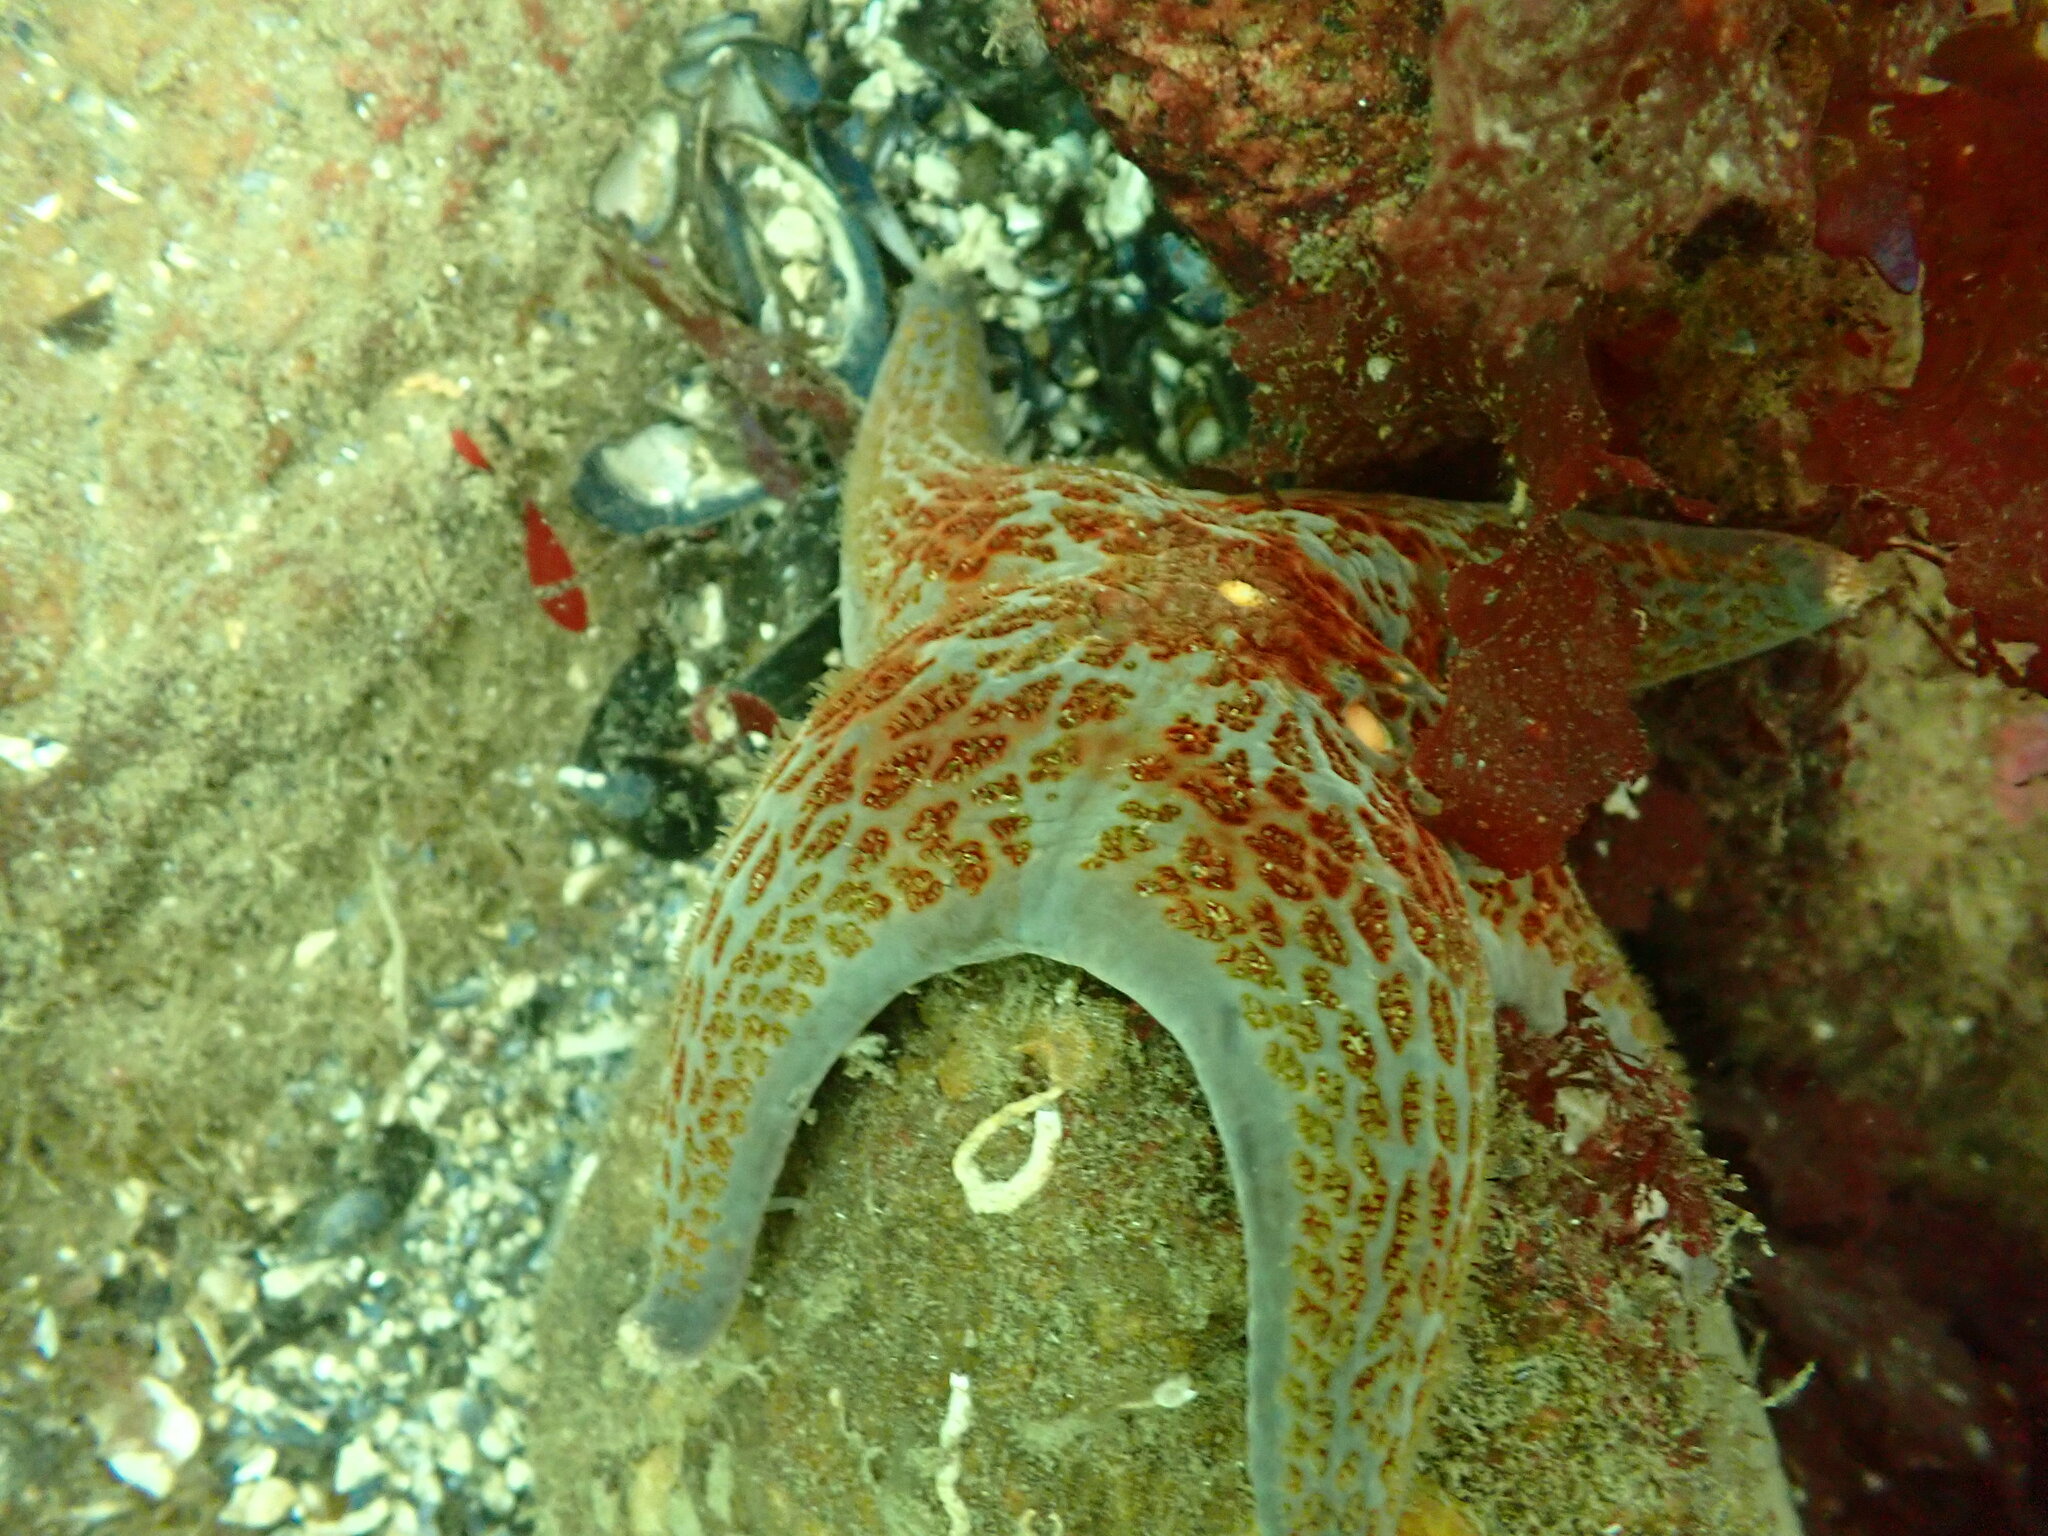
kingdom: Animalia
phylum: Echinodermata
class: Asteroidea
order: Valvatida
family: Asteropseidae
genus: Dermasterias
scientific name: Dermasterias imbricata
